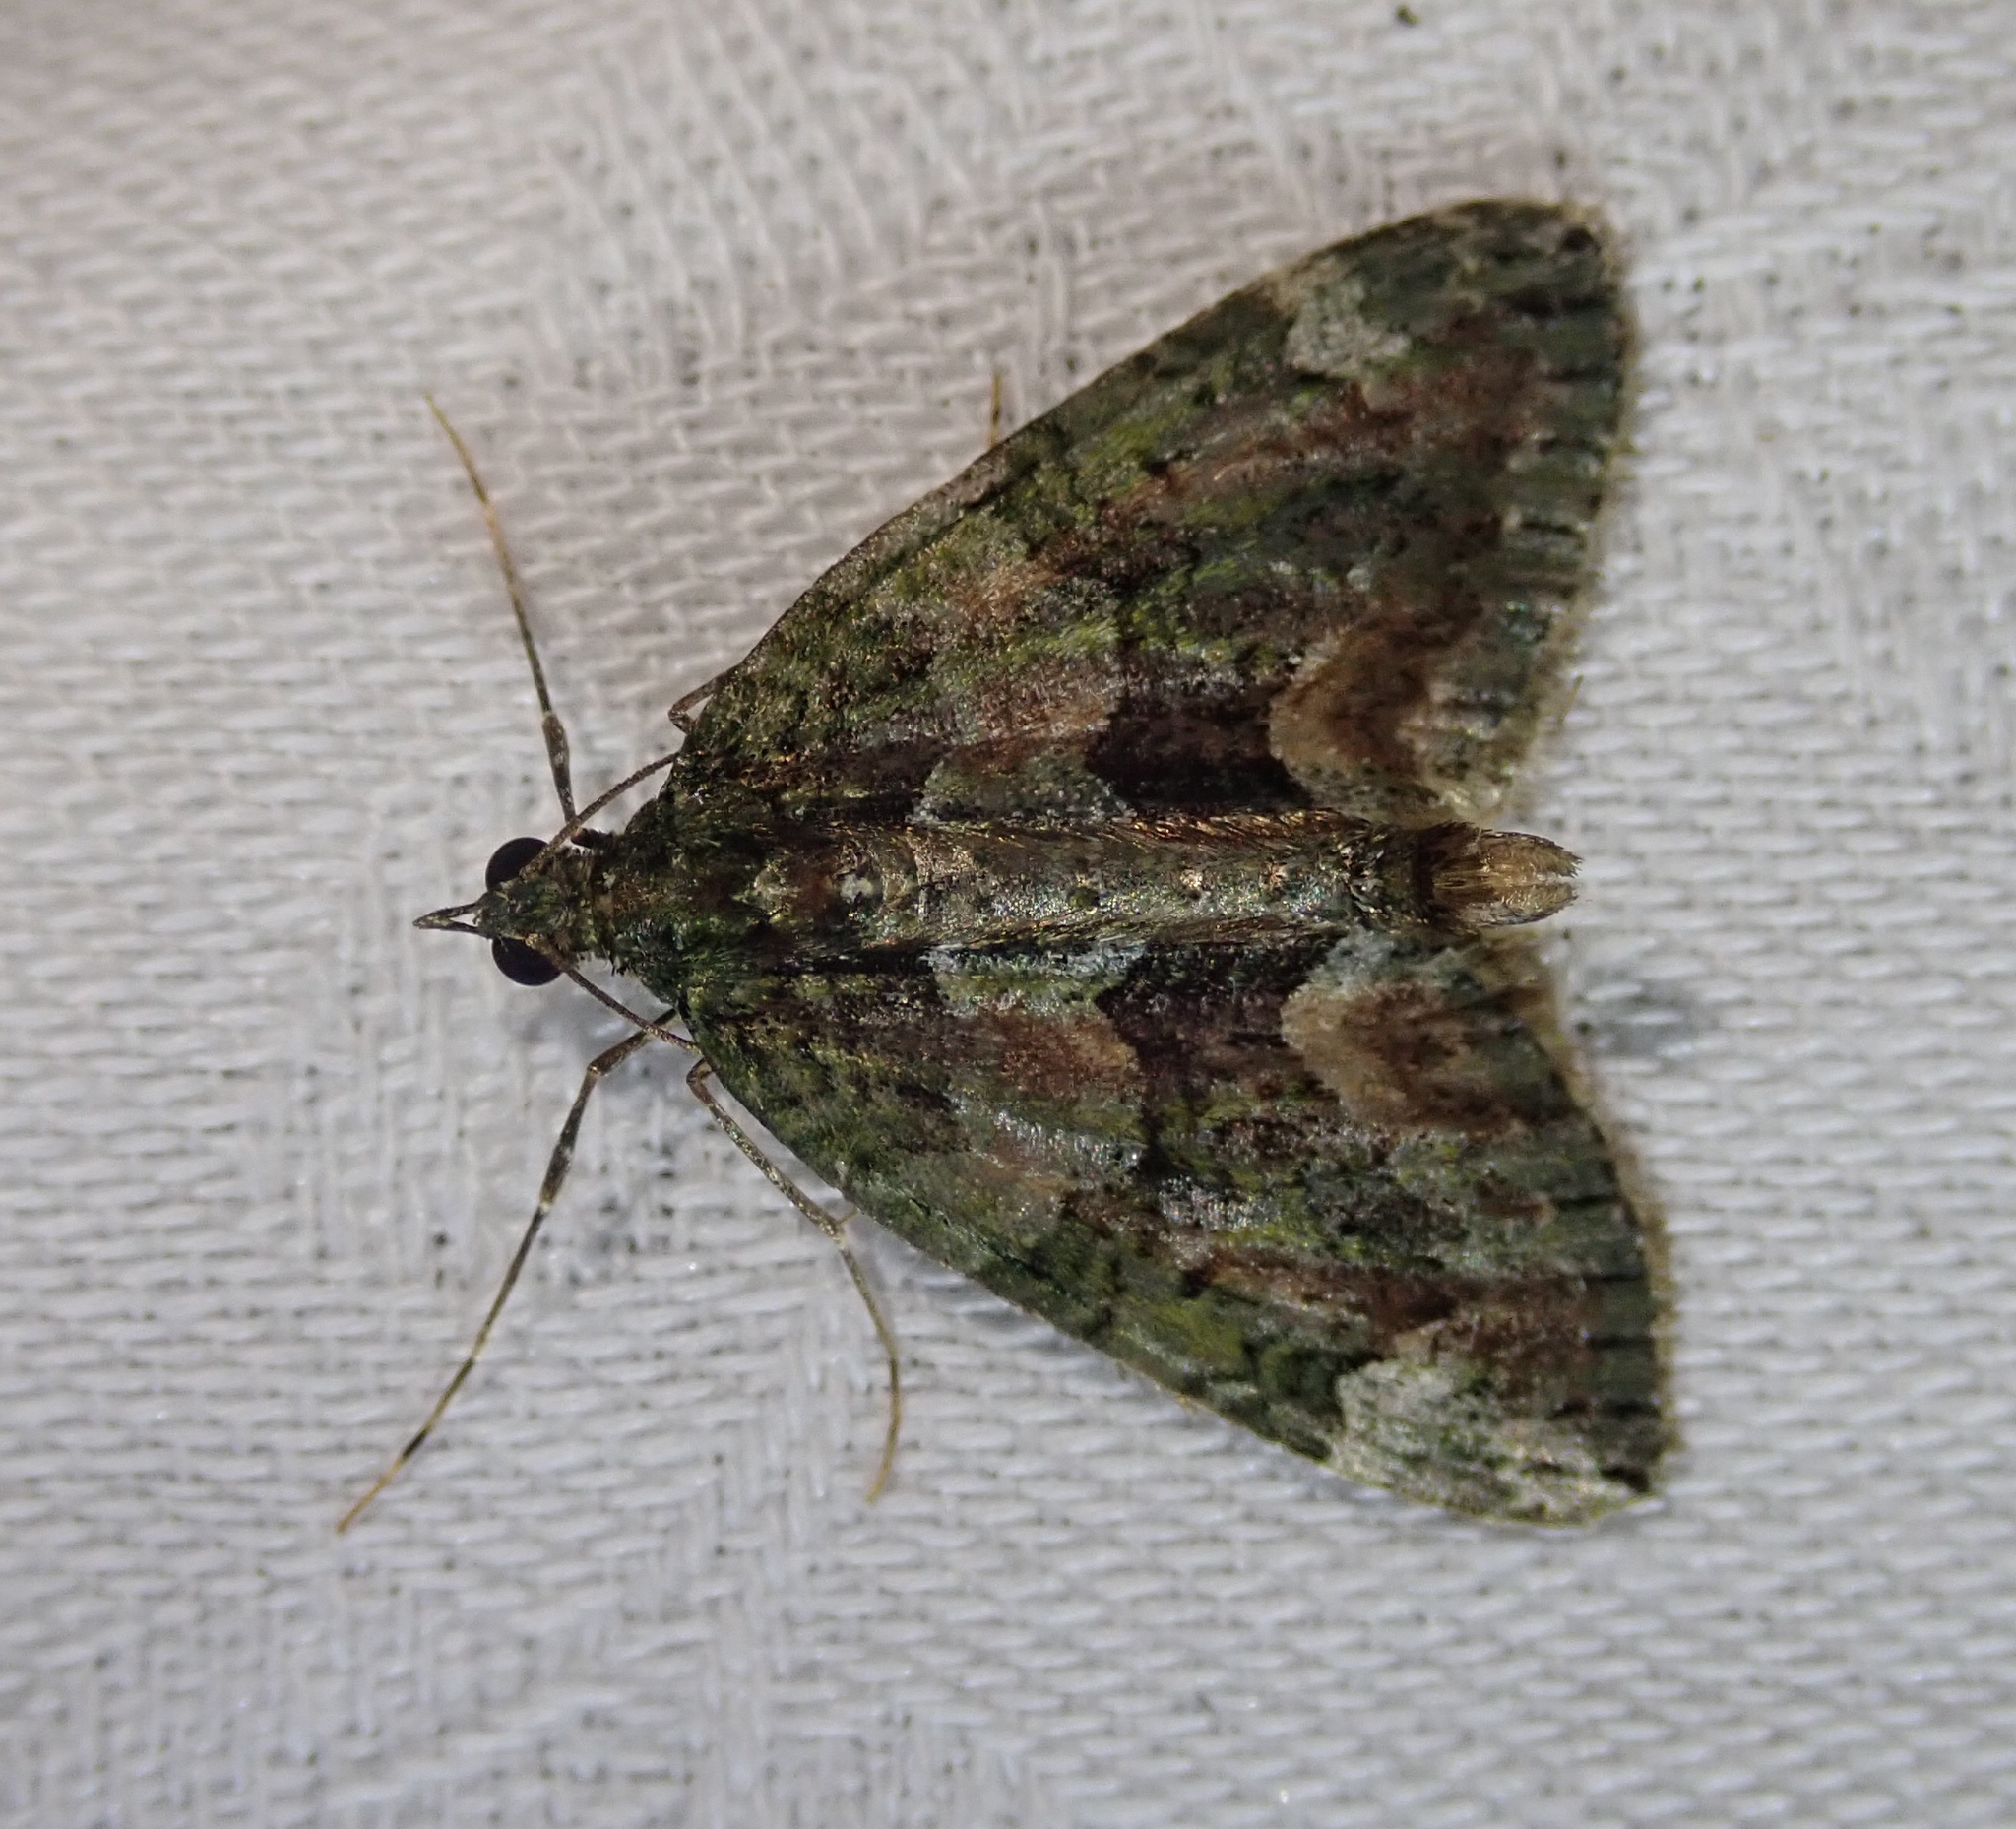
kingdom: Animalia
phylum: Arthropoda
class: Insecta
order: Lepidoptera
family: Geometridae
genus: Chloroclysta
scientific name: Chloroclysta siterata
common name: Red-green carpet
